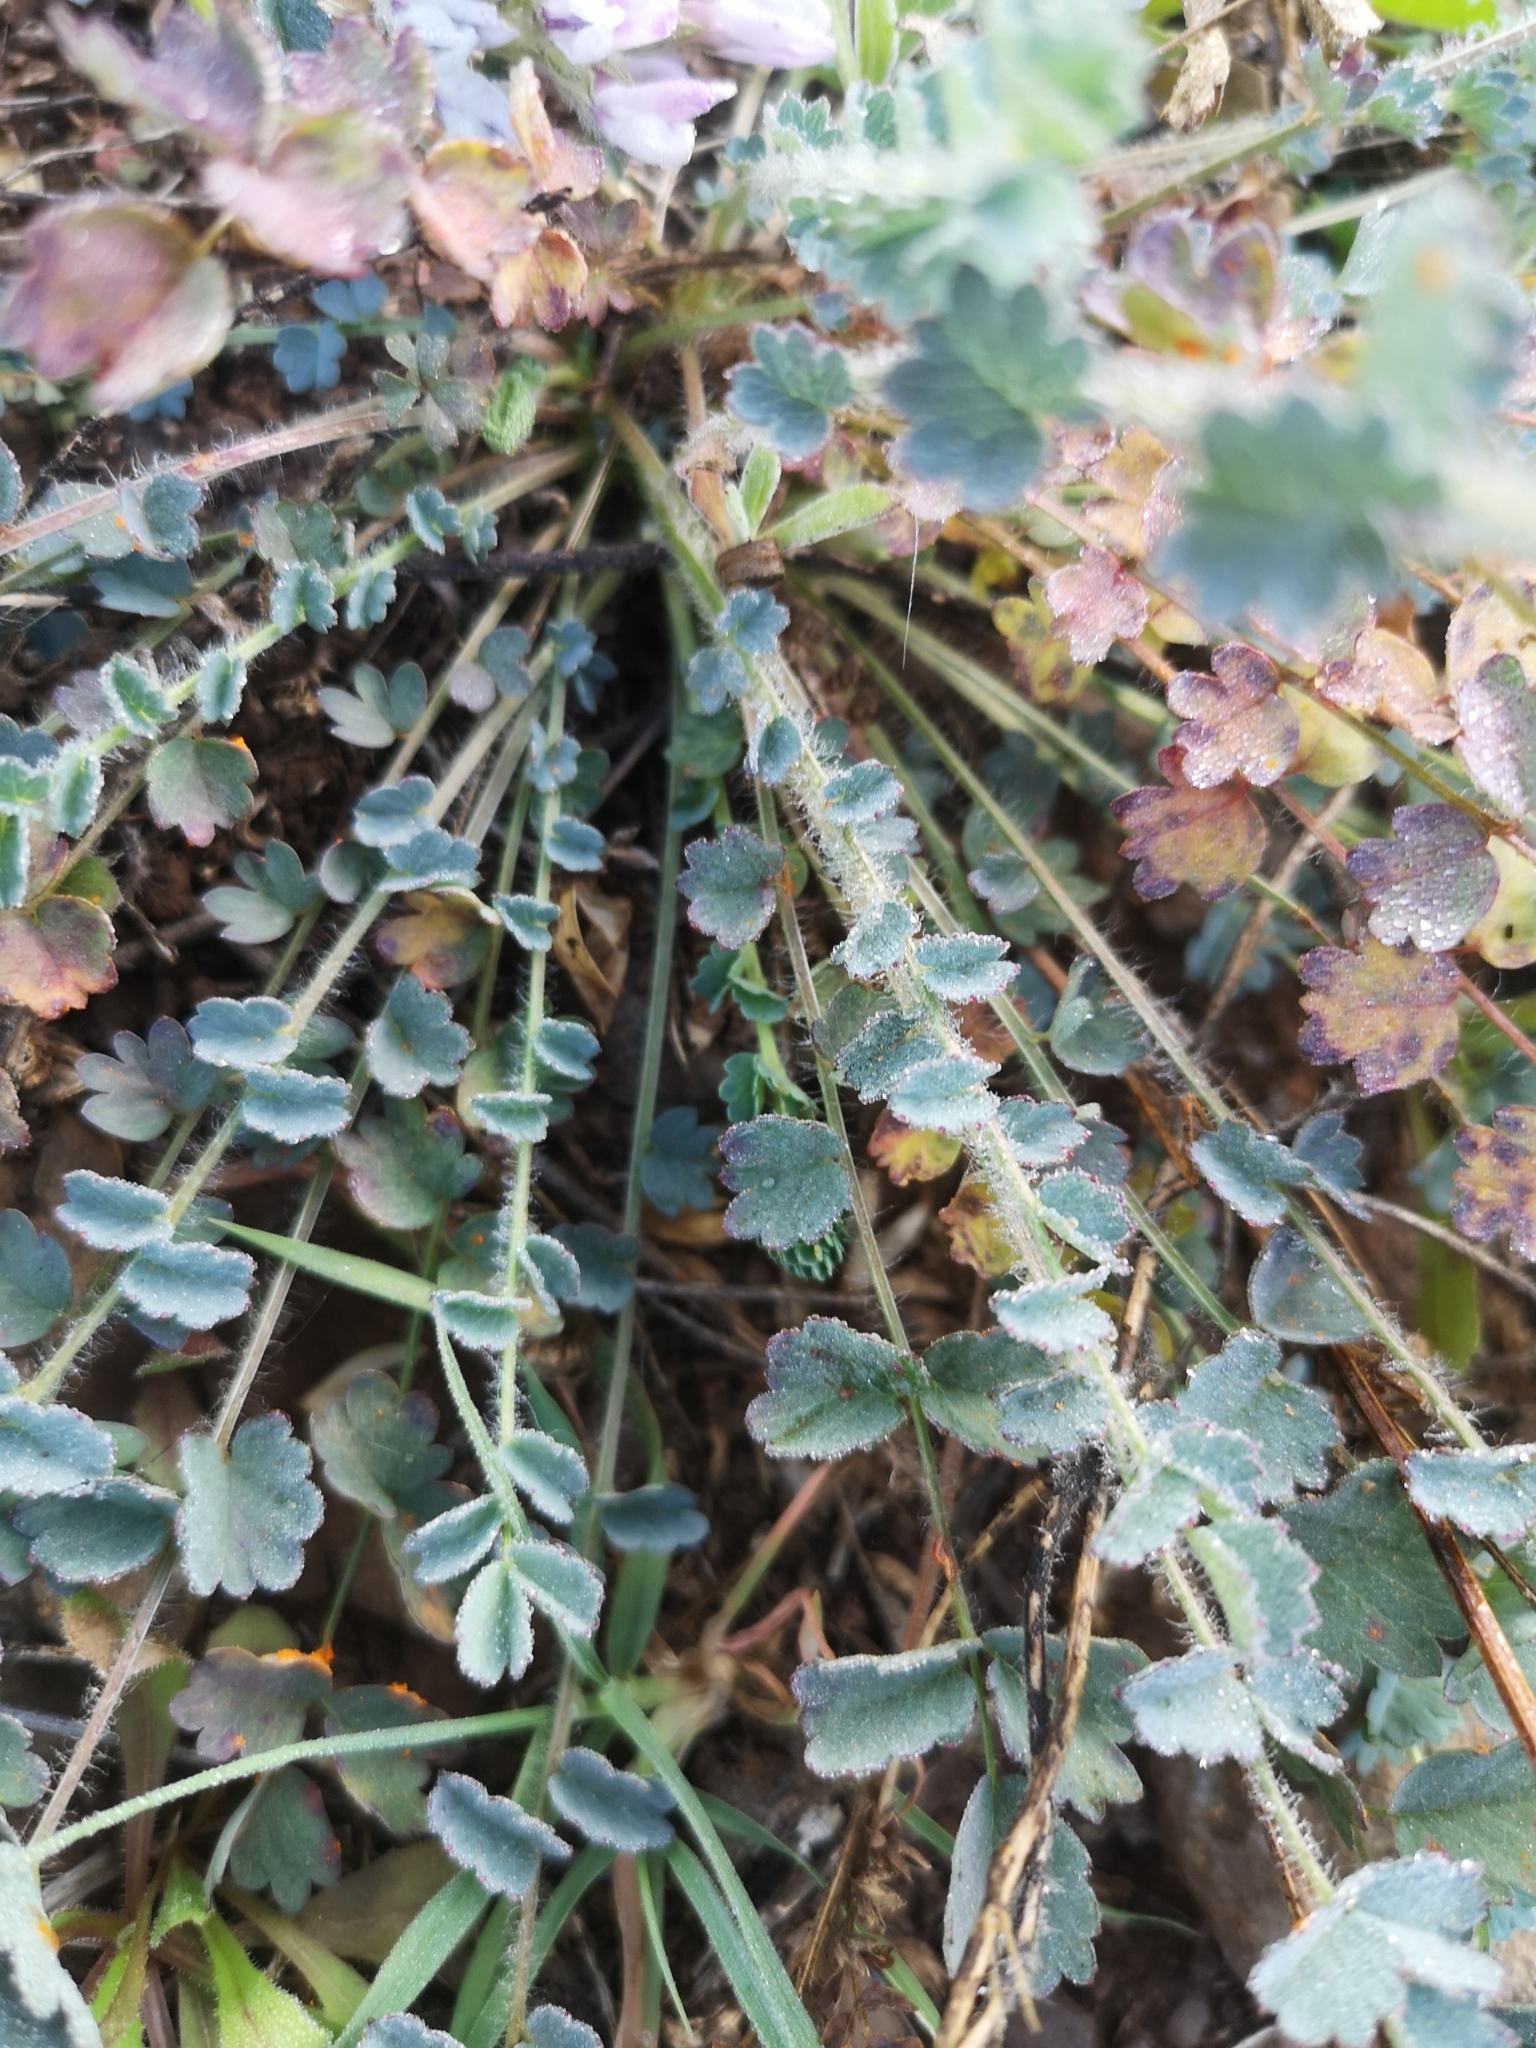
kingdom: Plantae
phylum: Tracheophyta
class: Magnoliopsida
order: Rosales
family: Rosaceae
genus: Poterium
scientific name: Poterium sanguisorba
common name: Salad burnet
